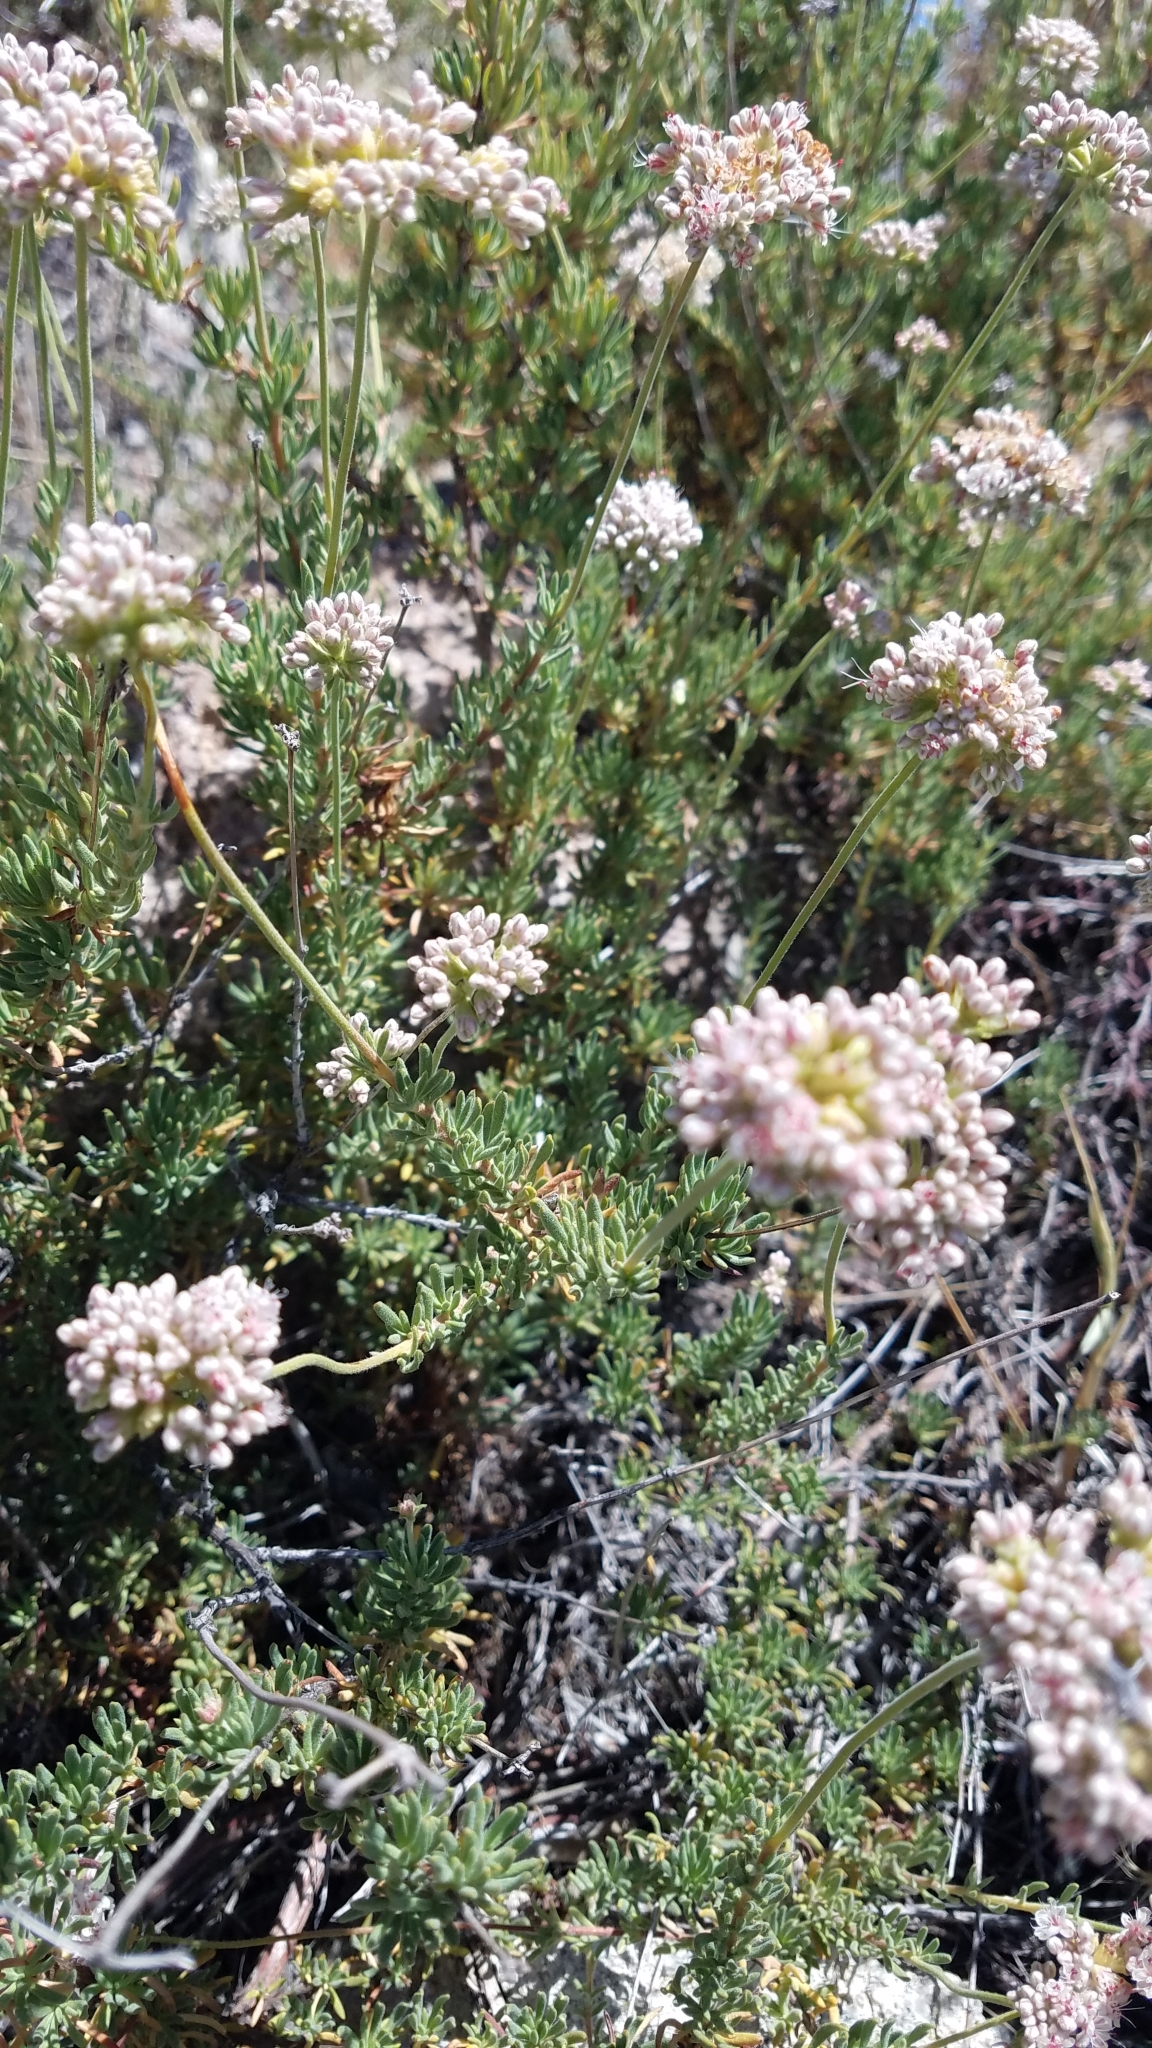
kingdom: Plantae
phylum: Tracheophyta
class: Magnoliopsida
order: Caryophyllales
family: Polygonaceae
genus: Eriogonum
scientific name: Eriogonum fasciculatum
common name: California wild buckwheat
